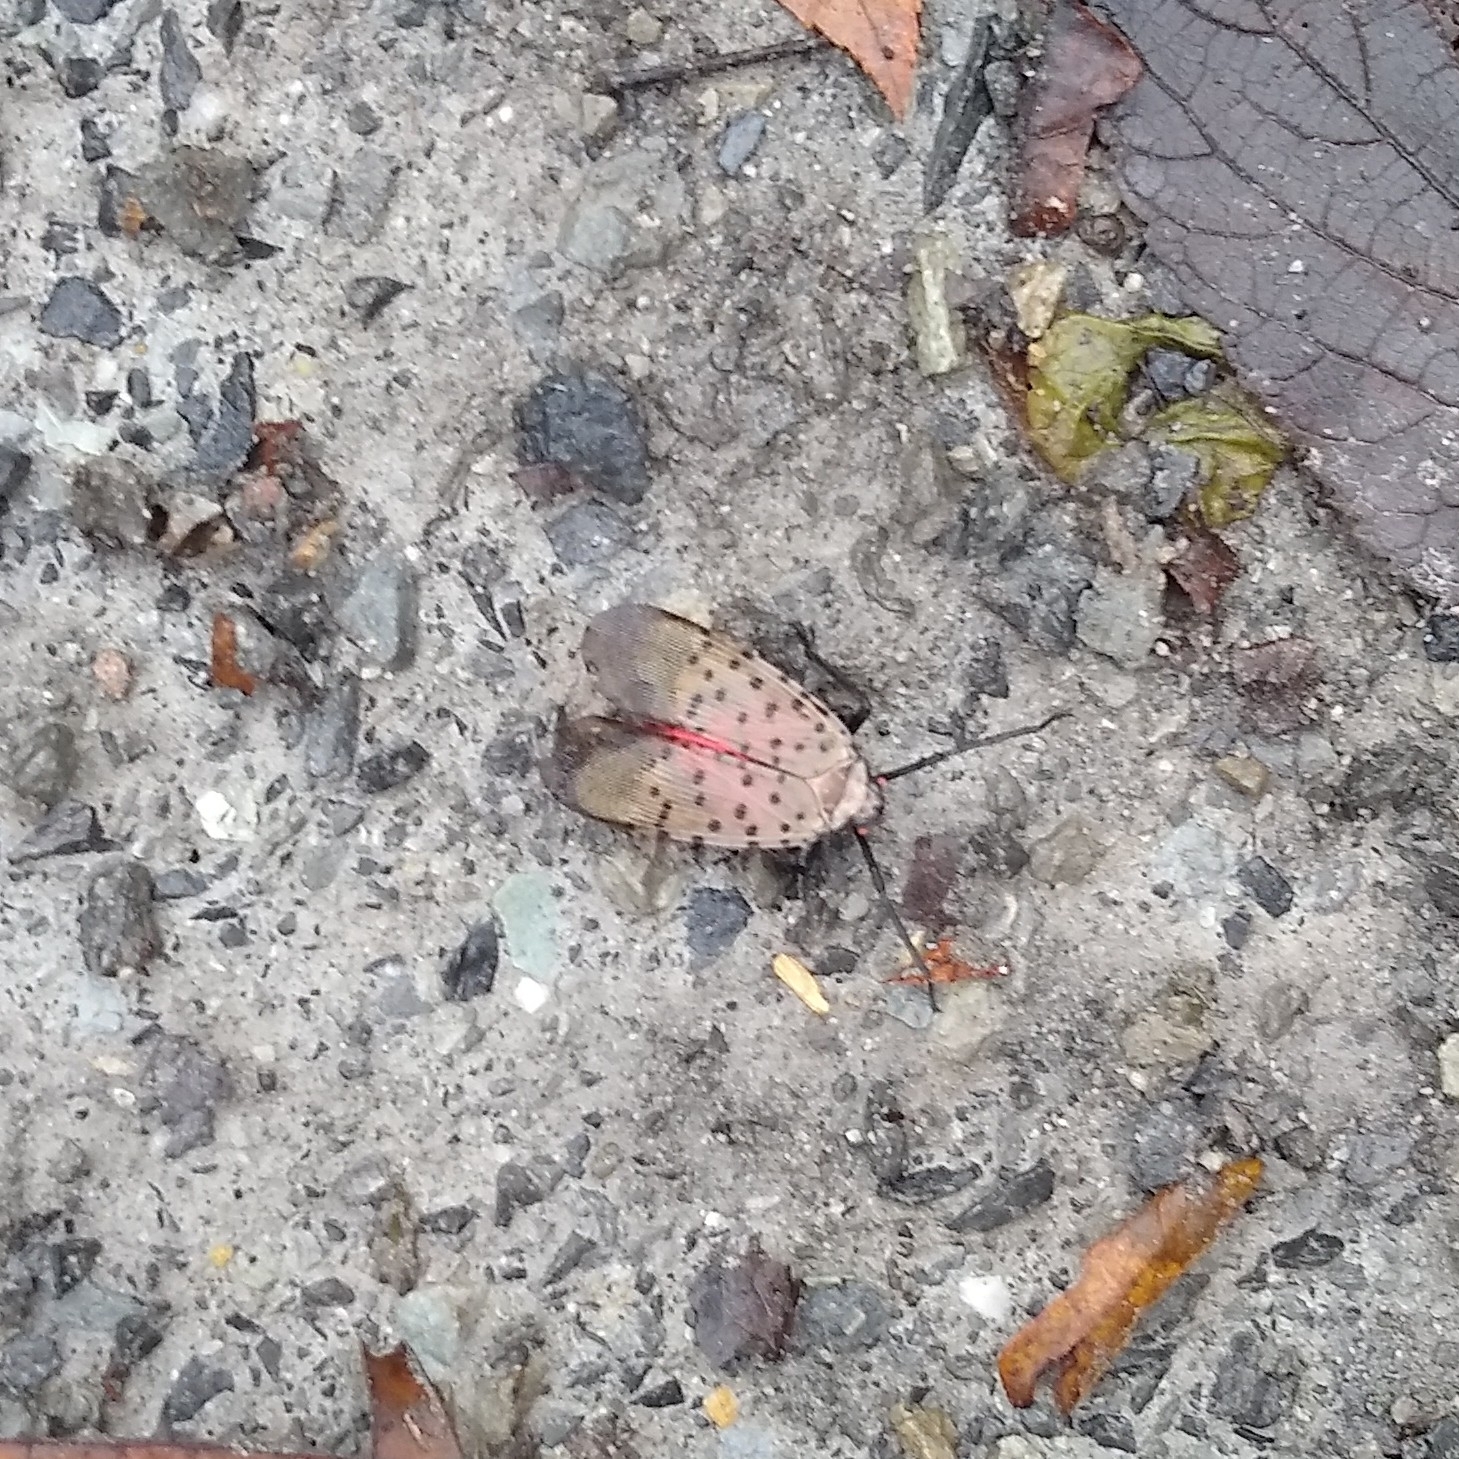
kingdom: Animalia
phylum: Arthropoda
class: Insecta
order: Hemiptera
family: Fulgoridae
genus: Lycorma
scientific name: Lycorma delicatula
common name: Spotted lanternfly
